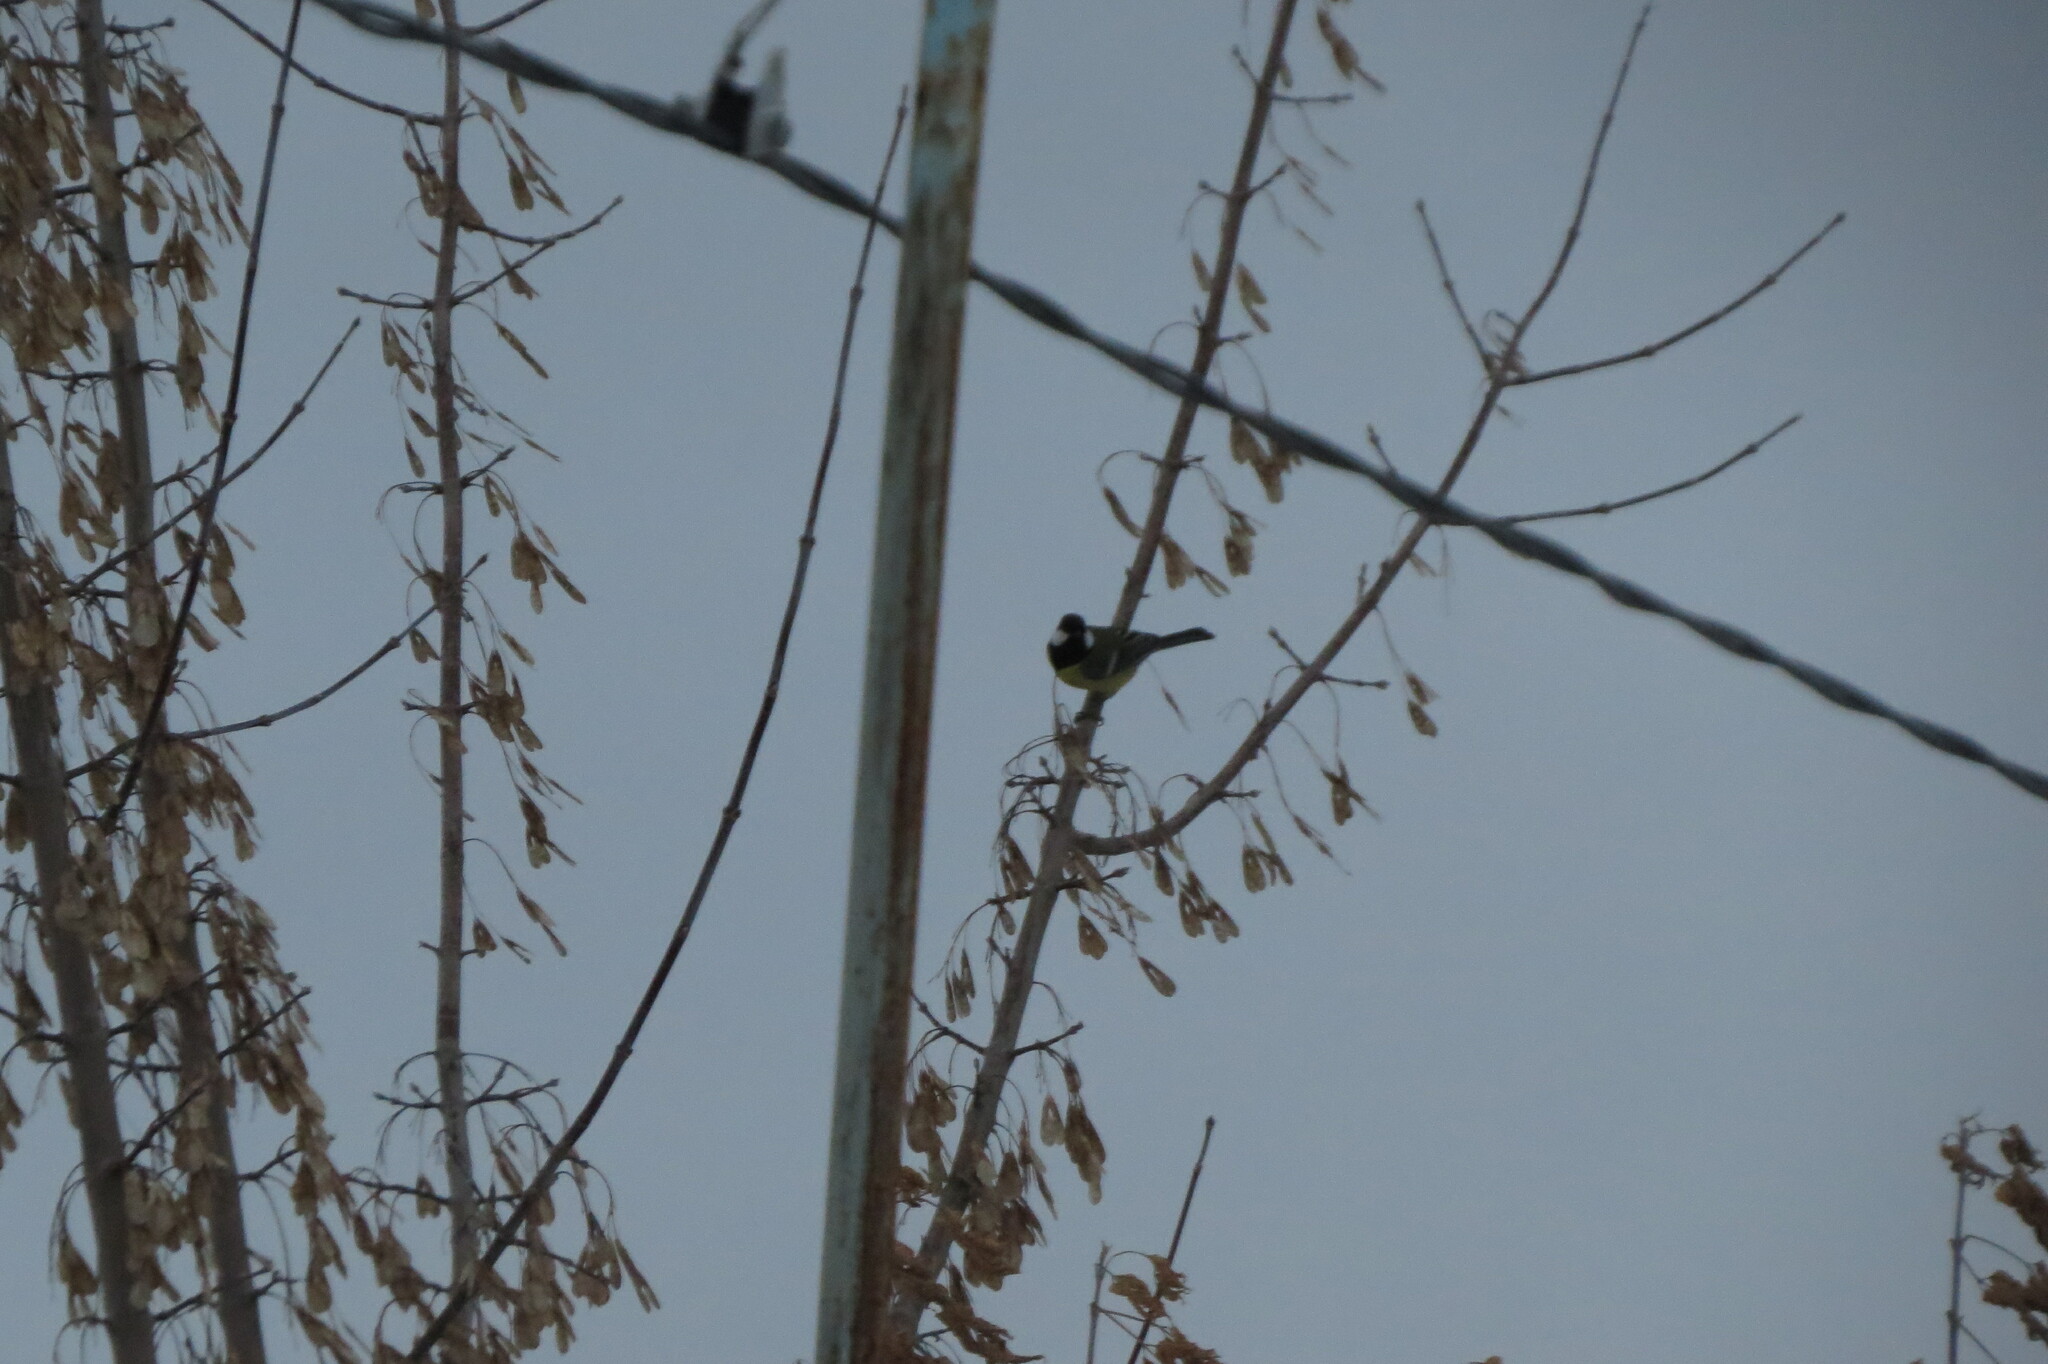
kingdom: Animalia
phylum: Chordata
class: Aves
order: Passeriformes
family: Paridae
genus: Parus
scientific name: Parus major
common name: Great tit
